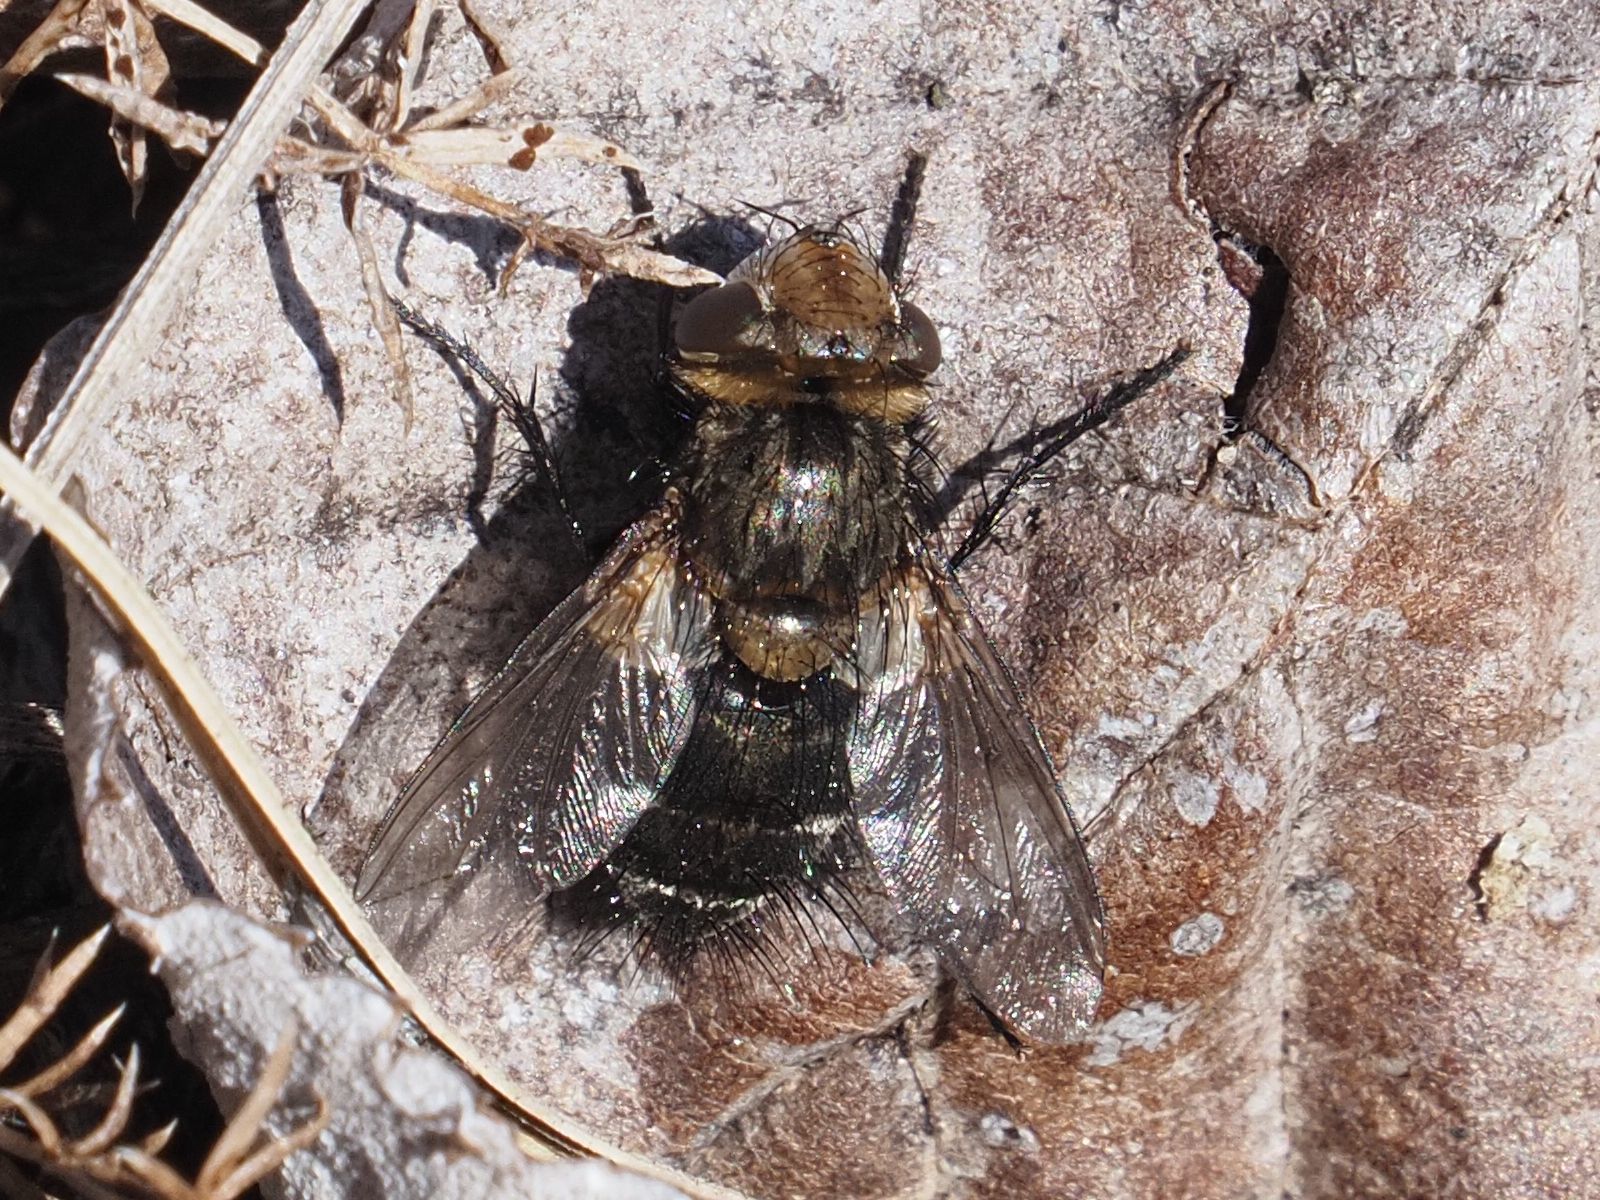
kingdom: Animalia
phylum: Arthropoda
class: Insecta
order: Diptera
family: Tachinidae
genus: Gonia
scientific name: Gonia picea
